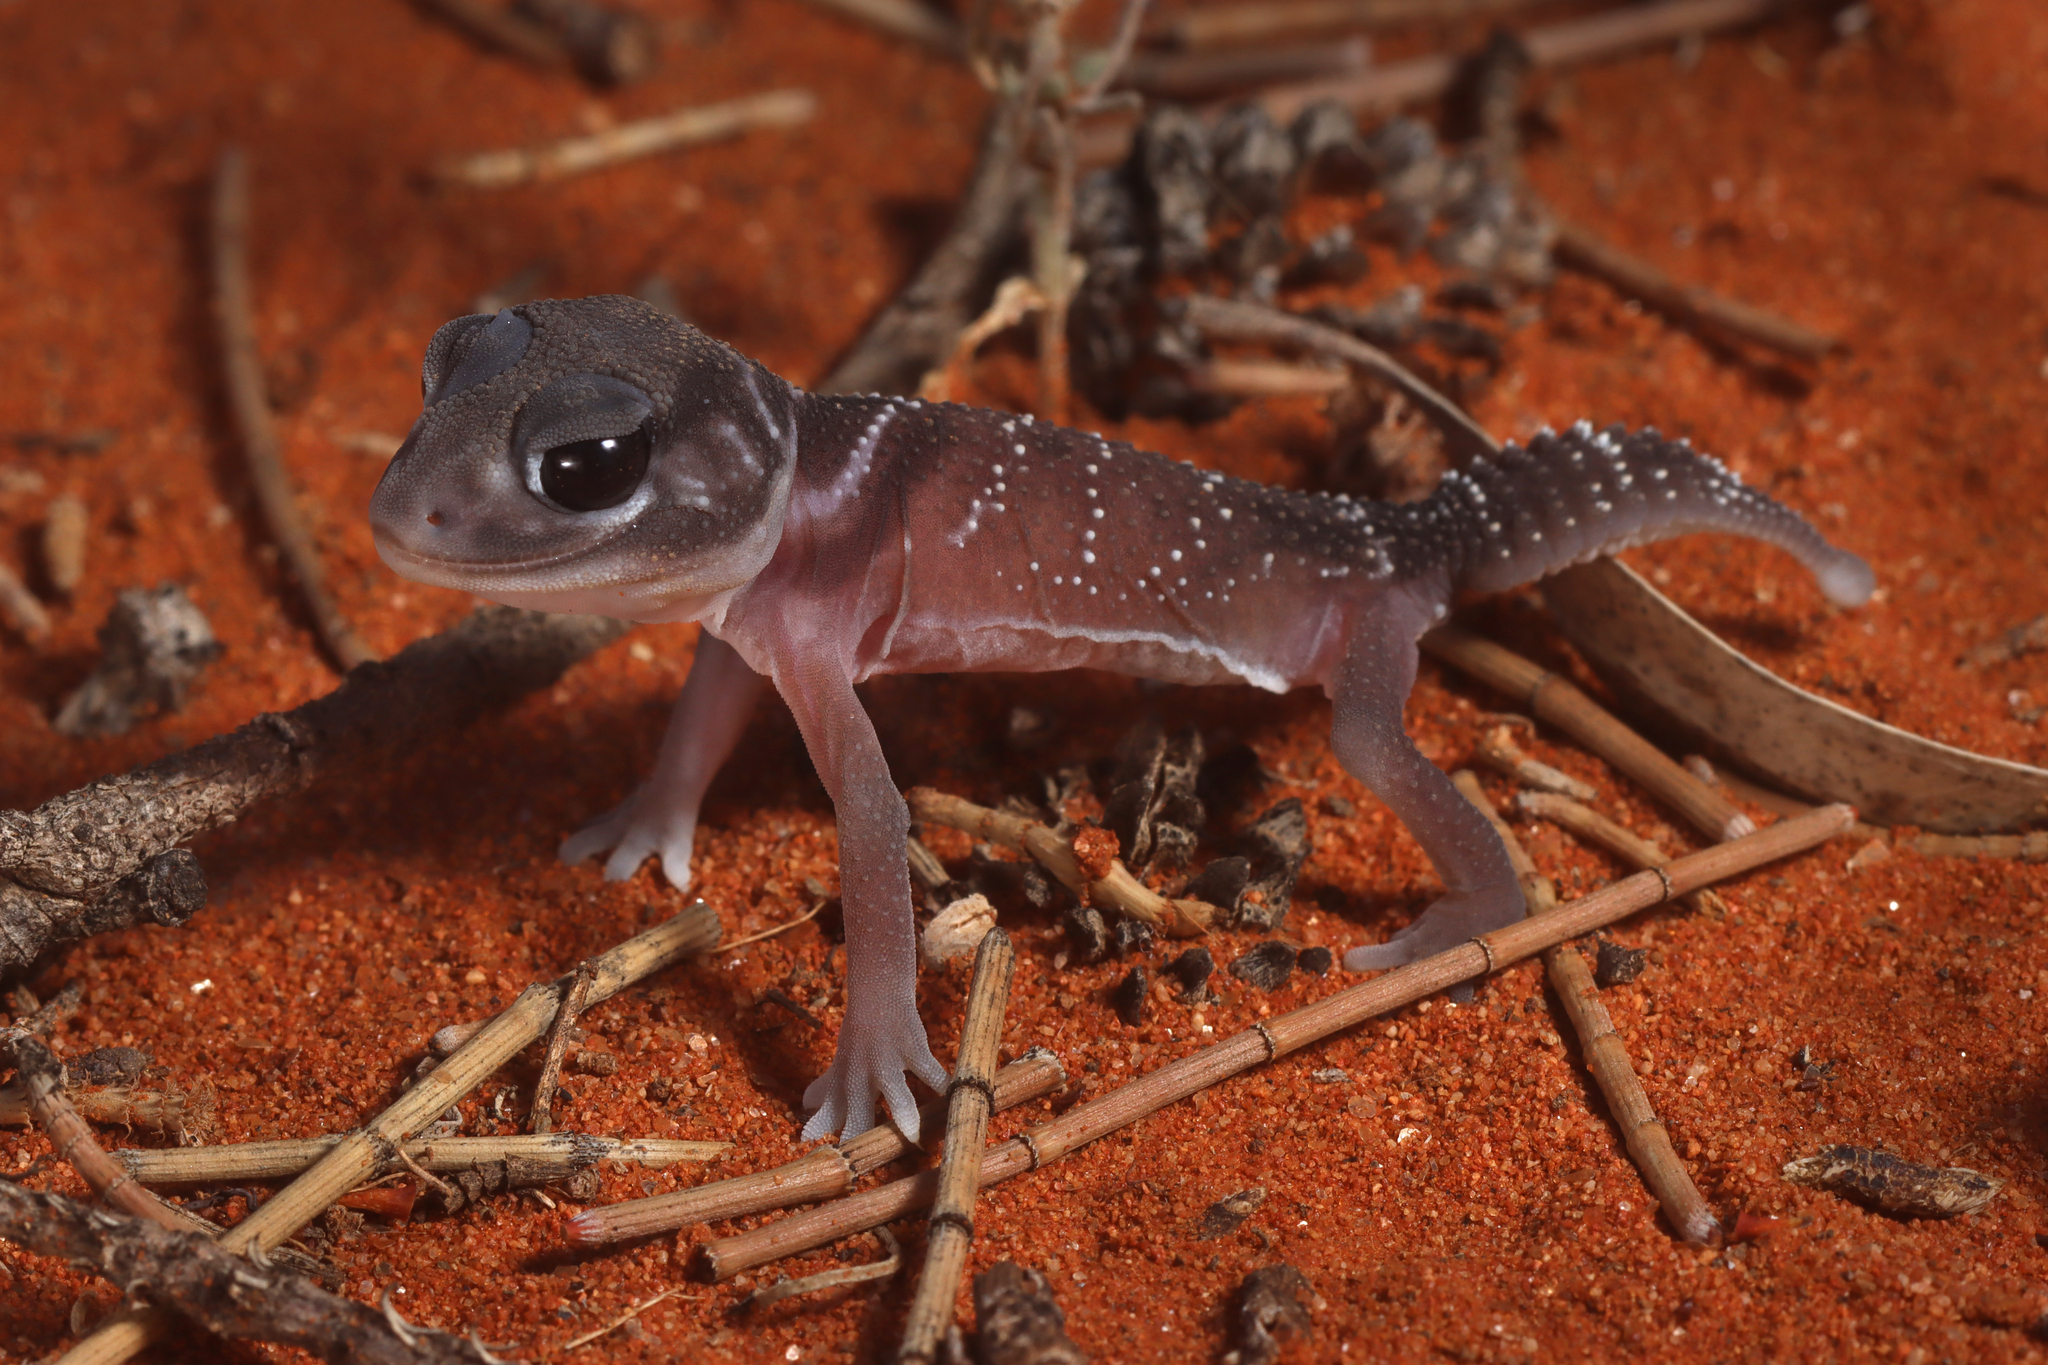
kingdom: Animalia
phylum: Chordata
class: Squamata
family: Carphodactylidae
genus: Nephrurus
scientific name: Nephrurus levis
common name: Smooth knob-tailed gecko
